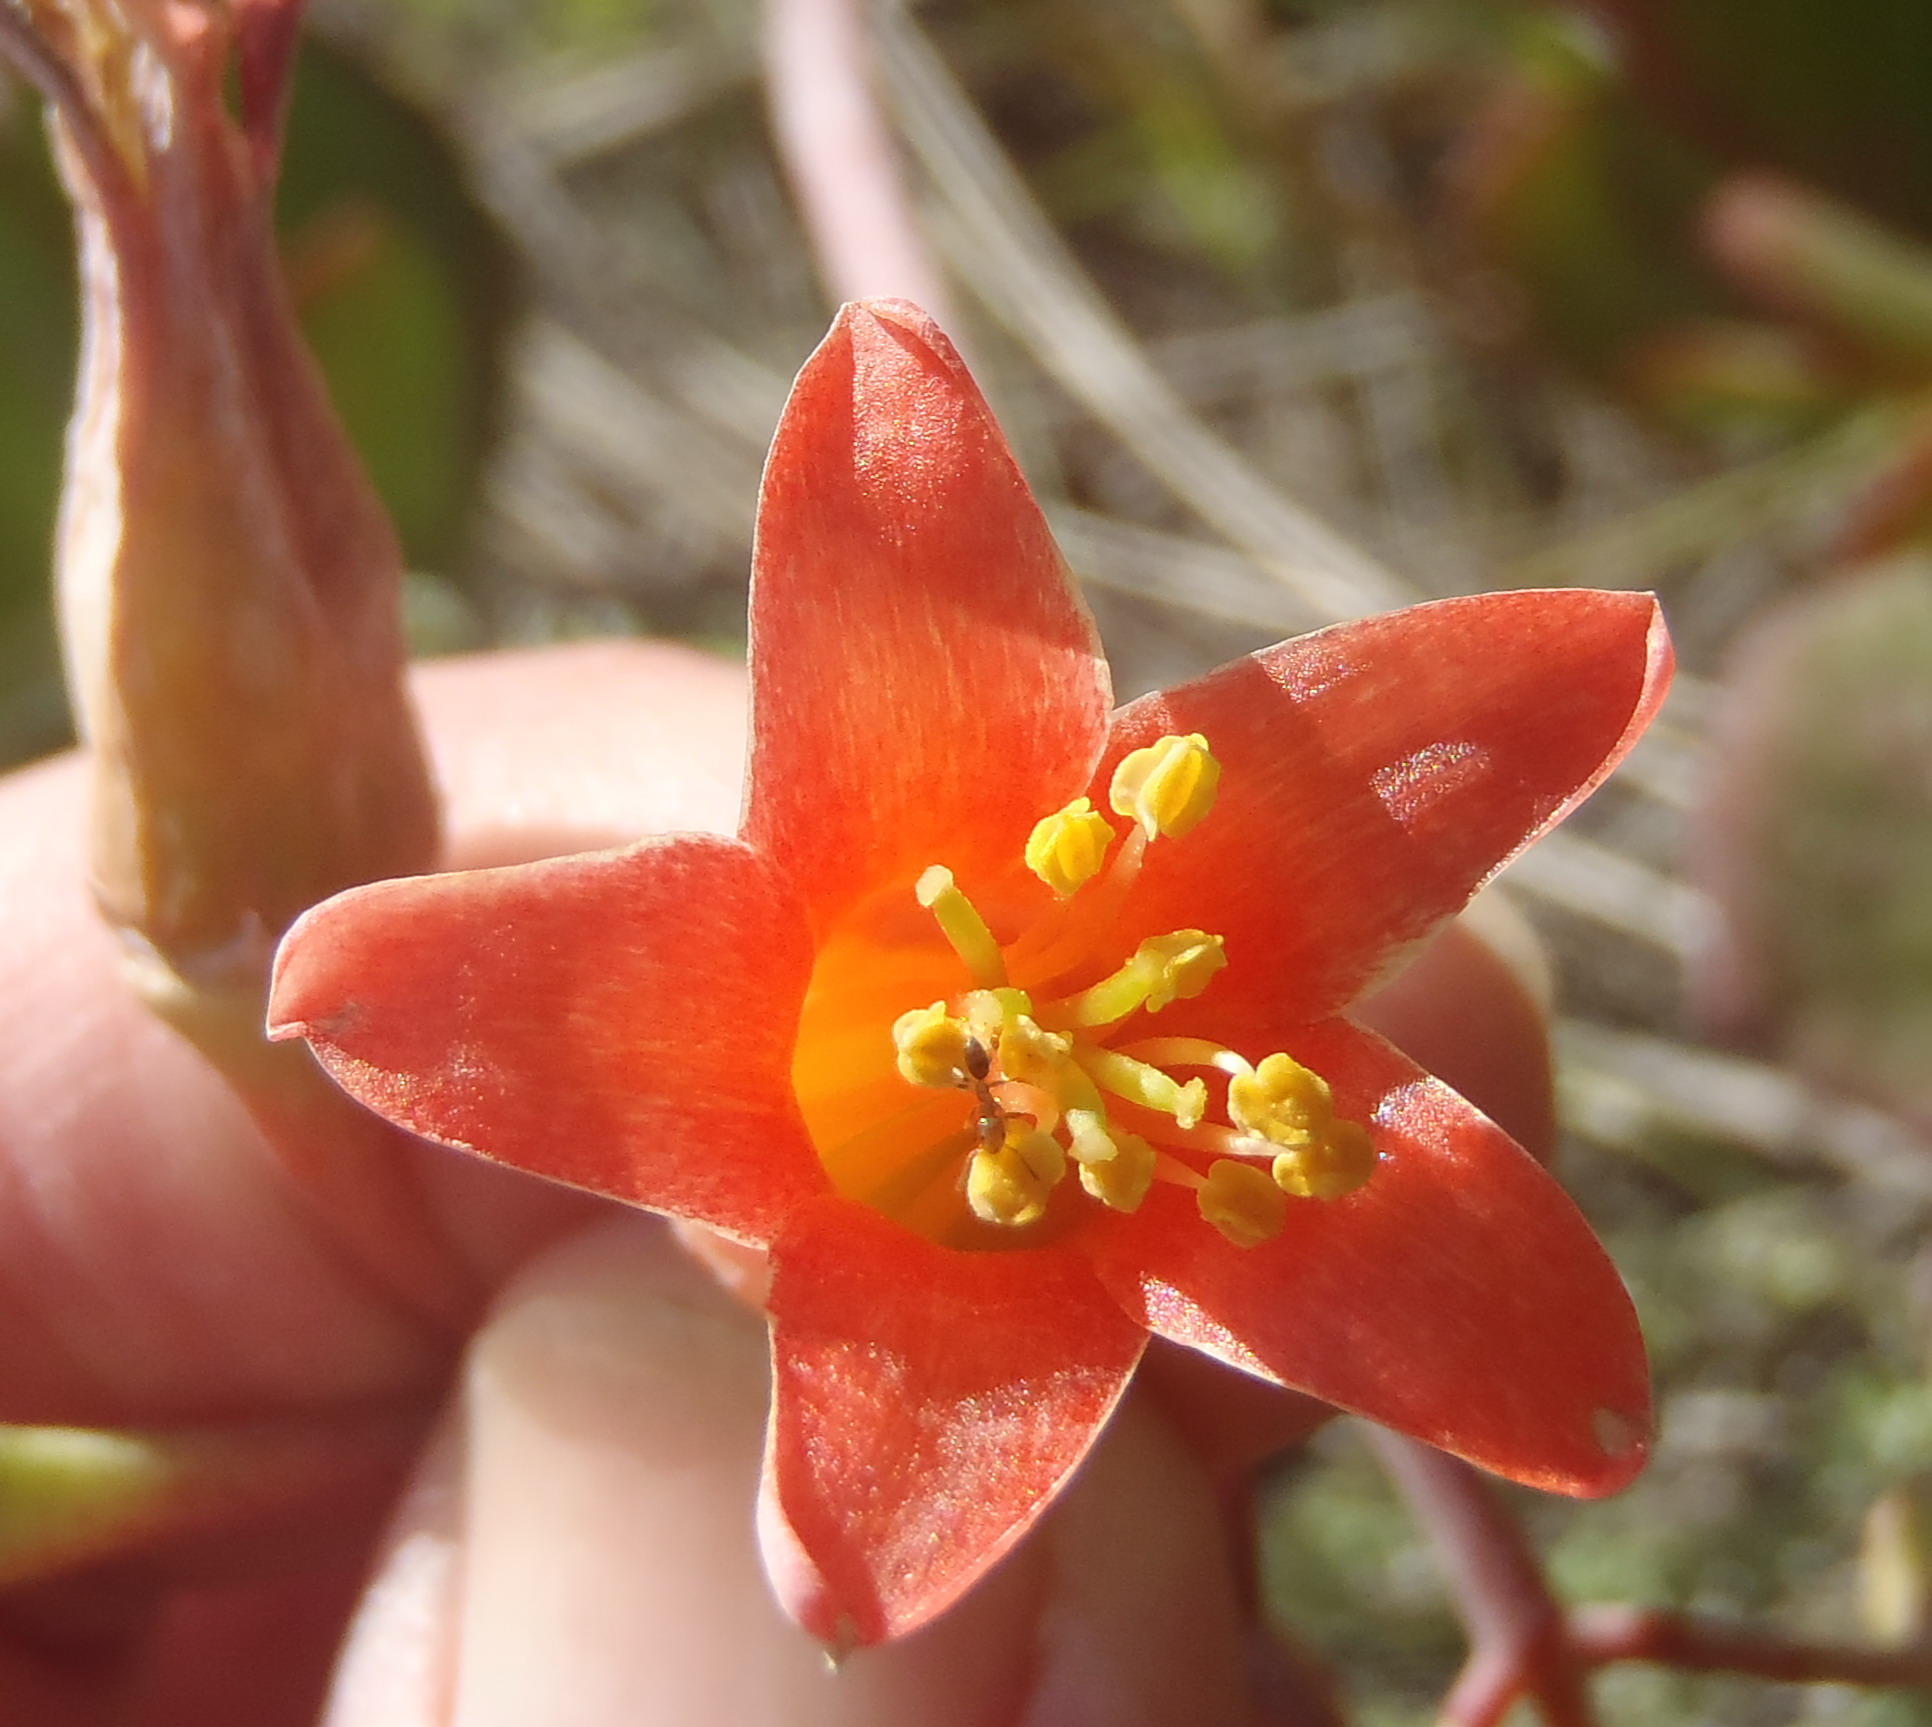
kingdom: Plantae
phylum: Tracheophyta
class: Magnoliopsida
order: Saxifragales
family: Crassulaceae
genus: Cotyledon
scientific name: Cotyledon orbiculata
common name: Pig's ear
